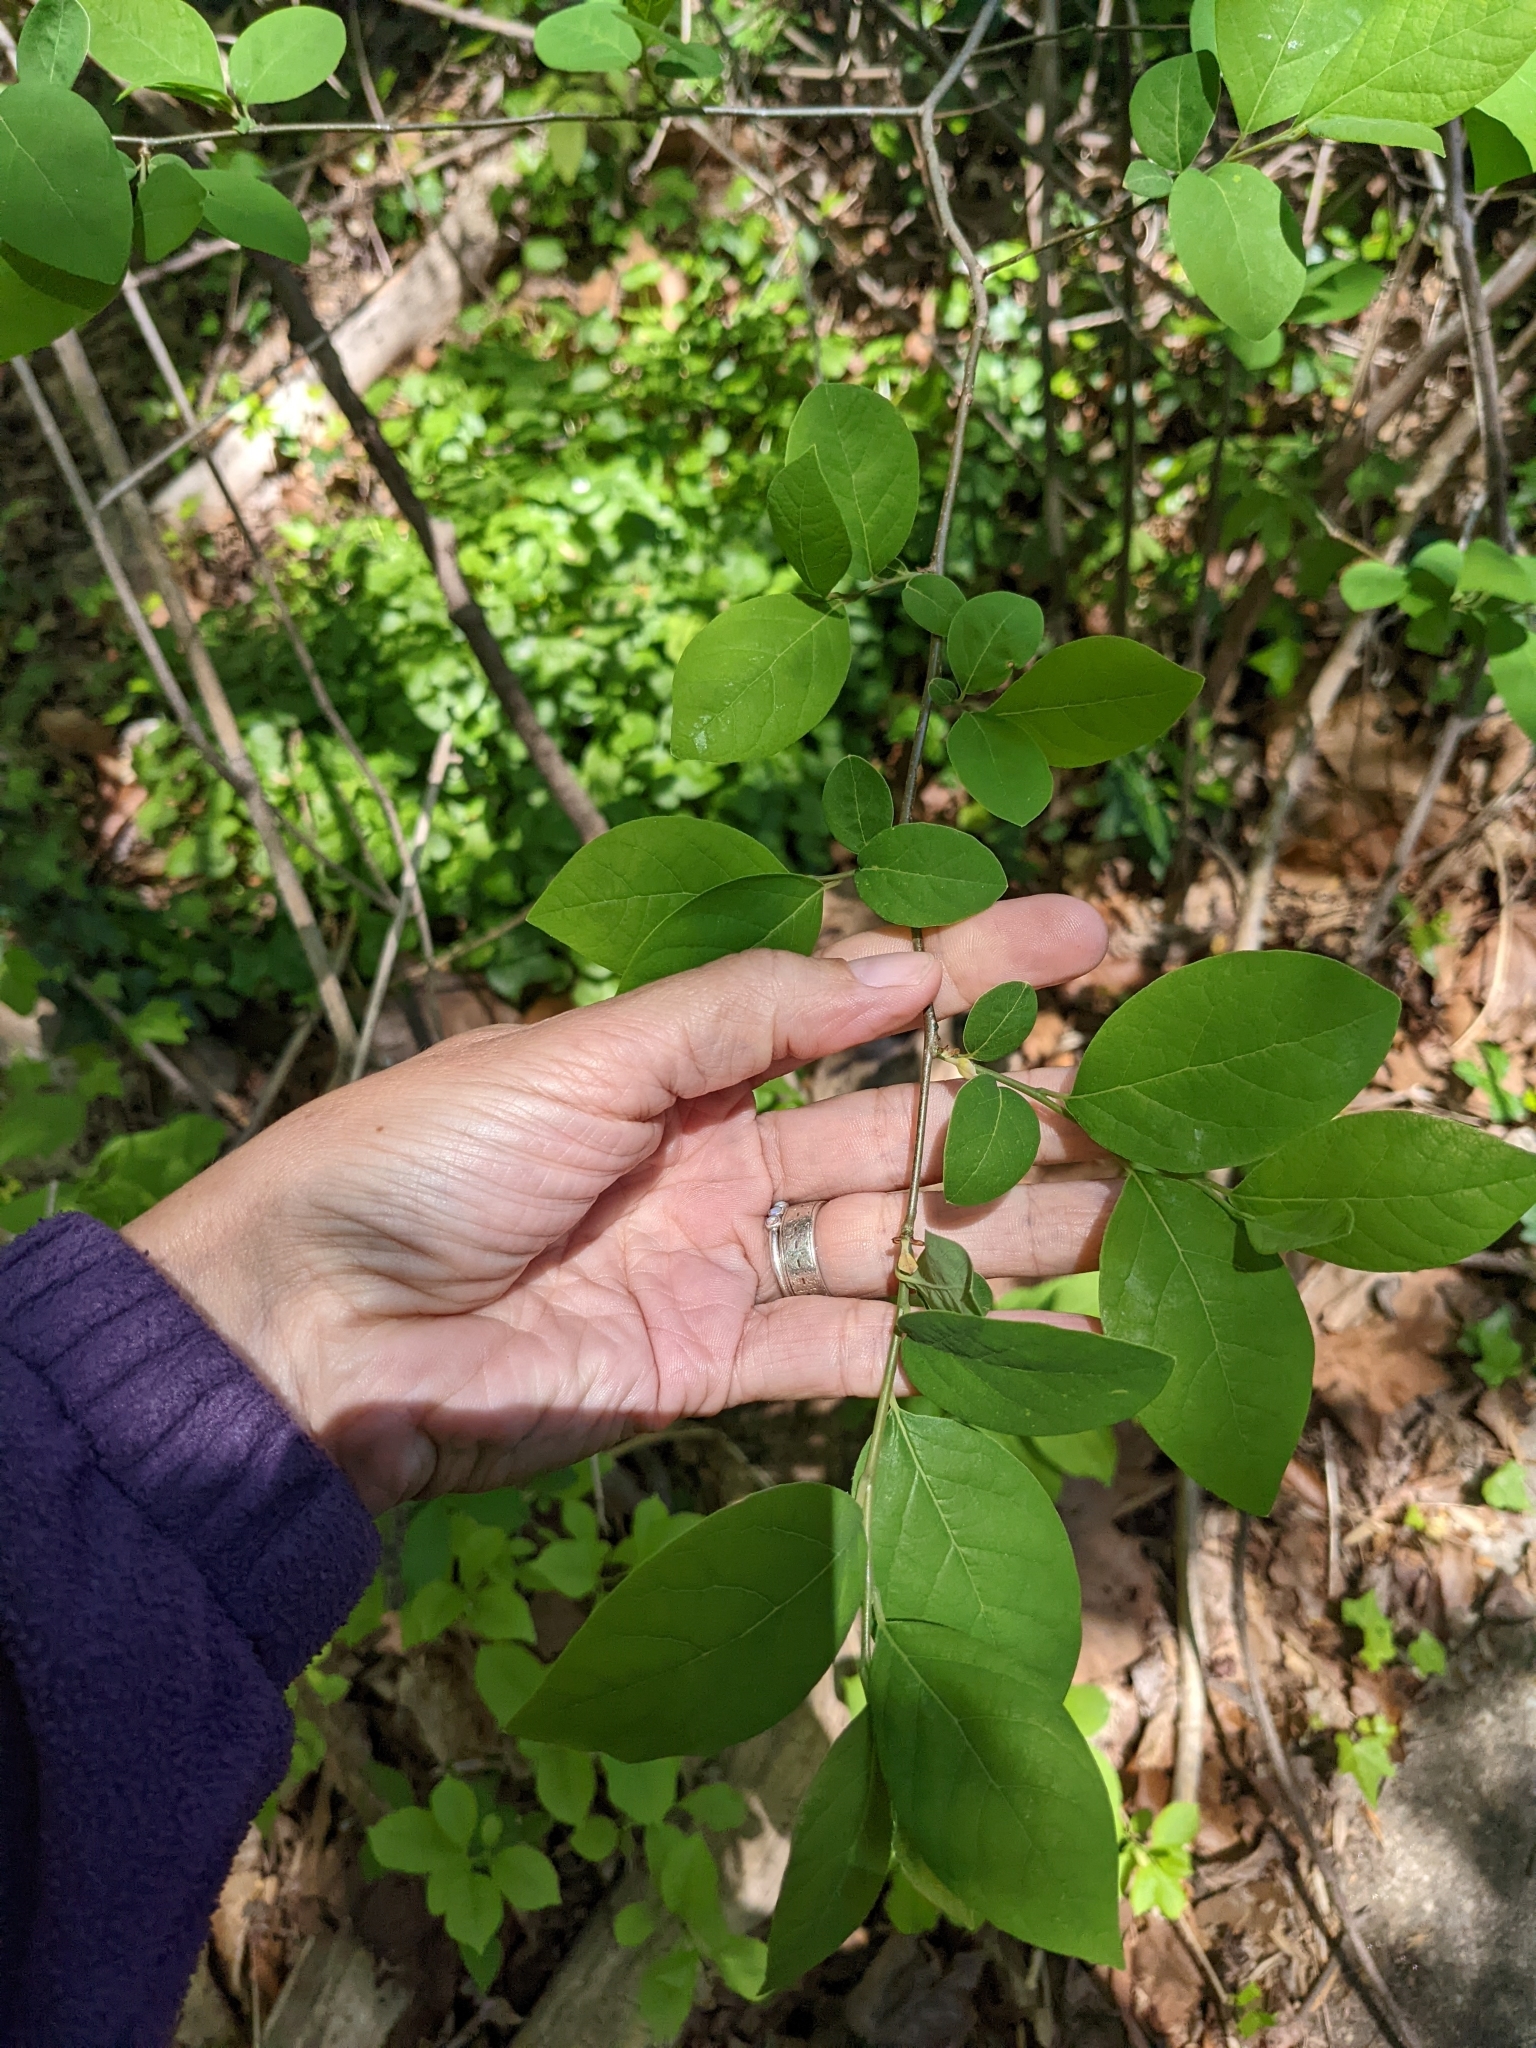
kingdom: Plantae
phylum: Tracheophyta
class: Magnoliopsida
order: Laurales
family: Lauraceae
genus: Lindera
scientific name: Lindera benzoin
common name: Spicebush
